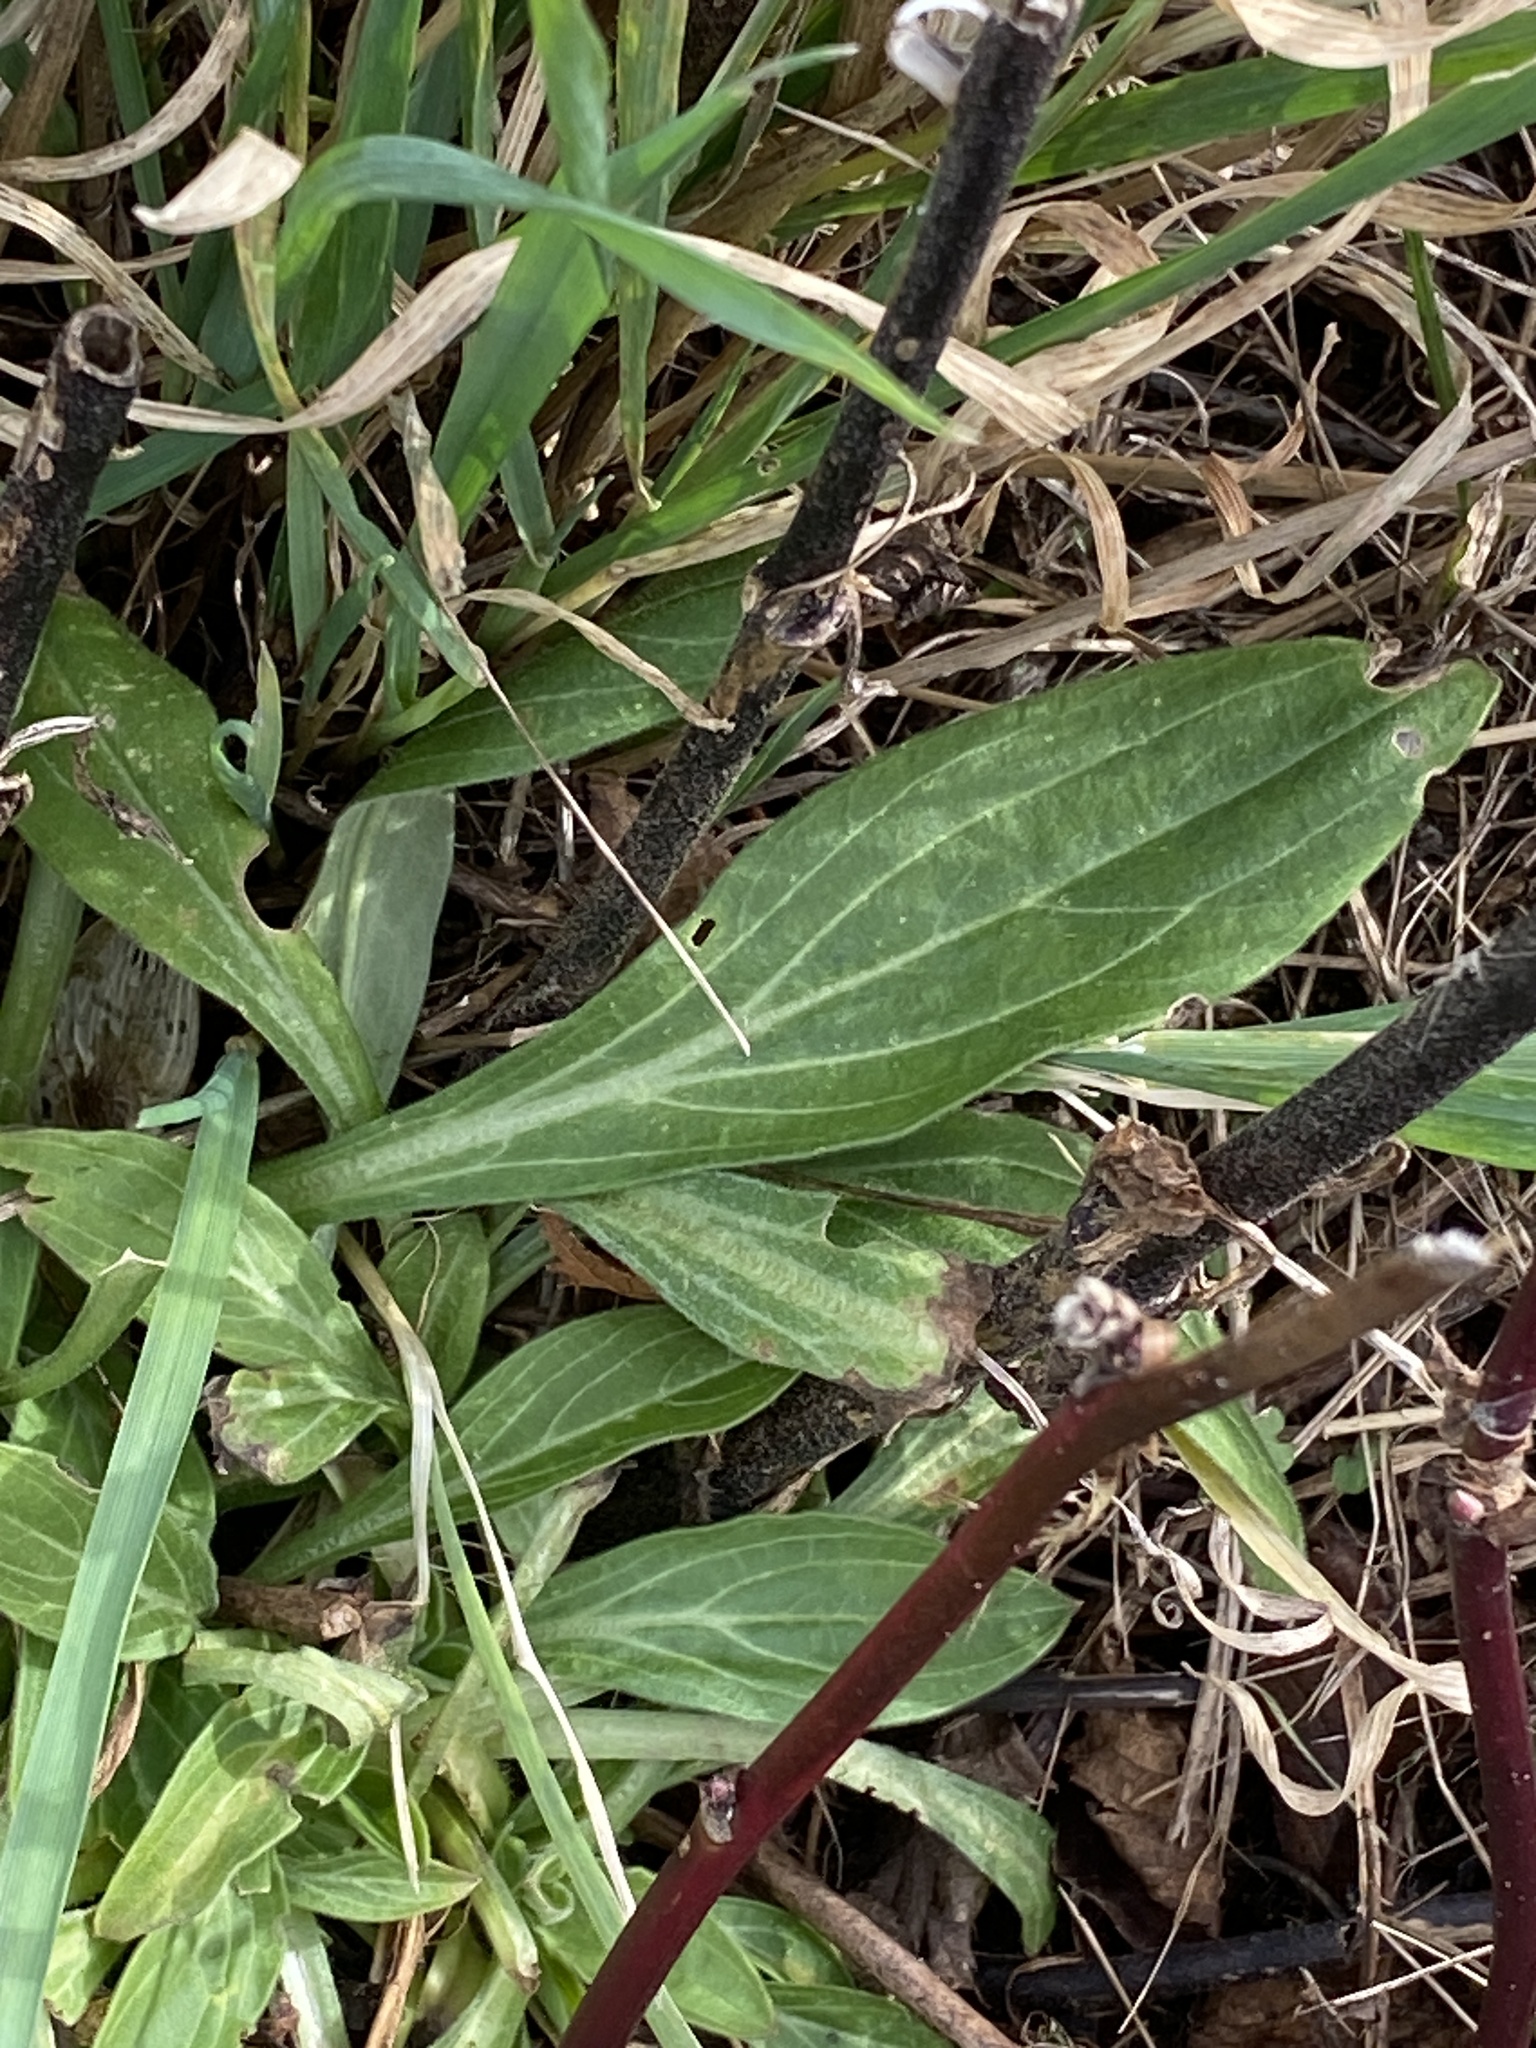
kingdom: Plantae
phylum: Tracheophyta
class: Magnoliopsida
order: Caryophyllales
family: Caryophyllaceae
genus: Silene
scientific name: Silene latifolia
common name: White campion
